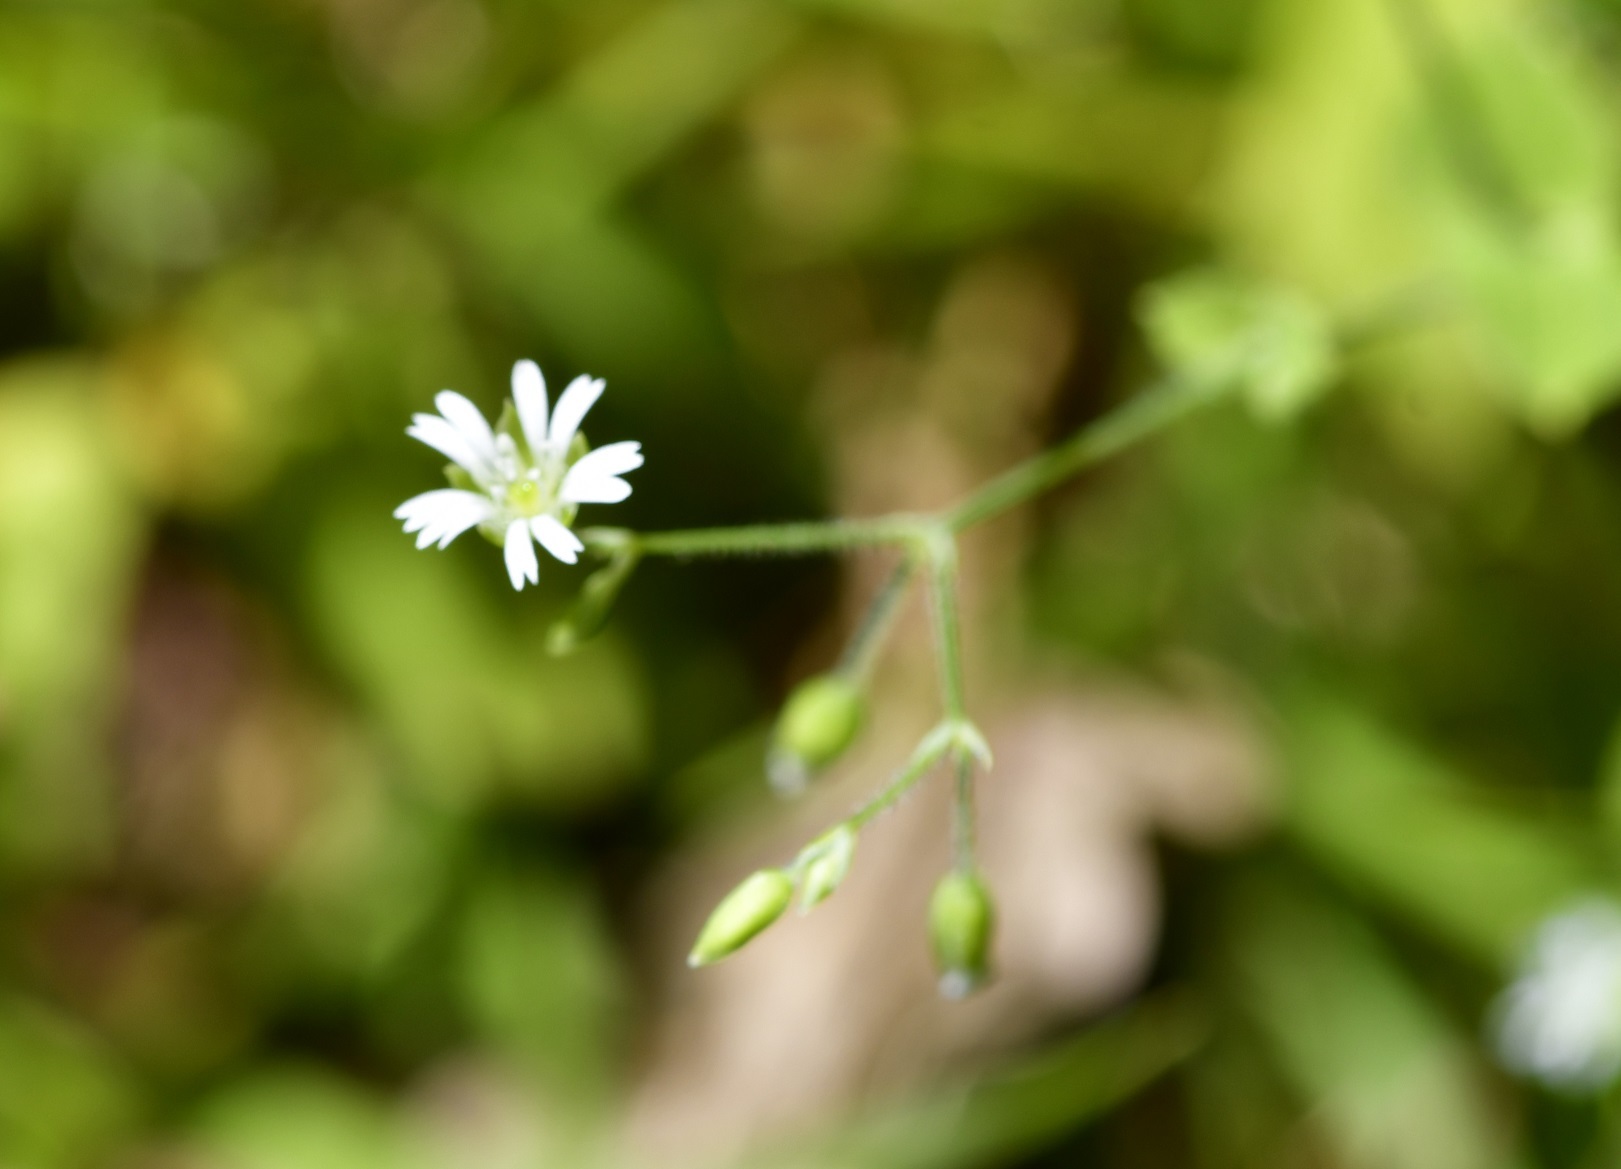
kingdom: Plantae
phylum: Tracheophyta
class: Magnoliopsida
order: Caryophyllales
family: Caryophyllaceae
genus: Drymaria
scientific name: Drymaria villosa
